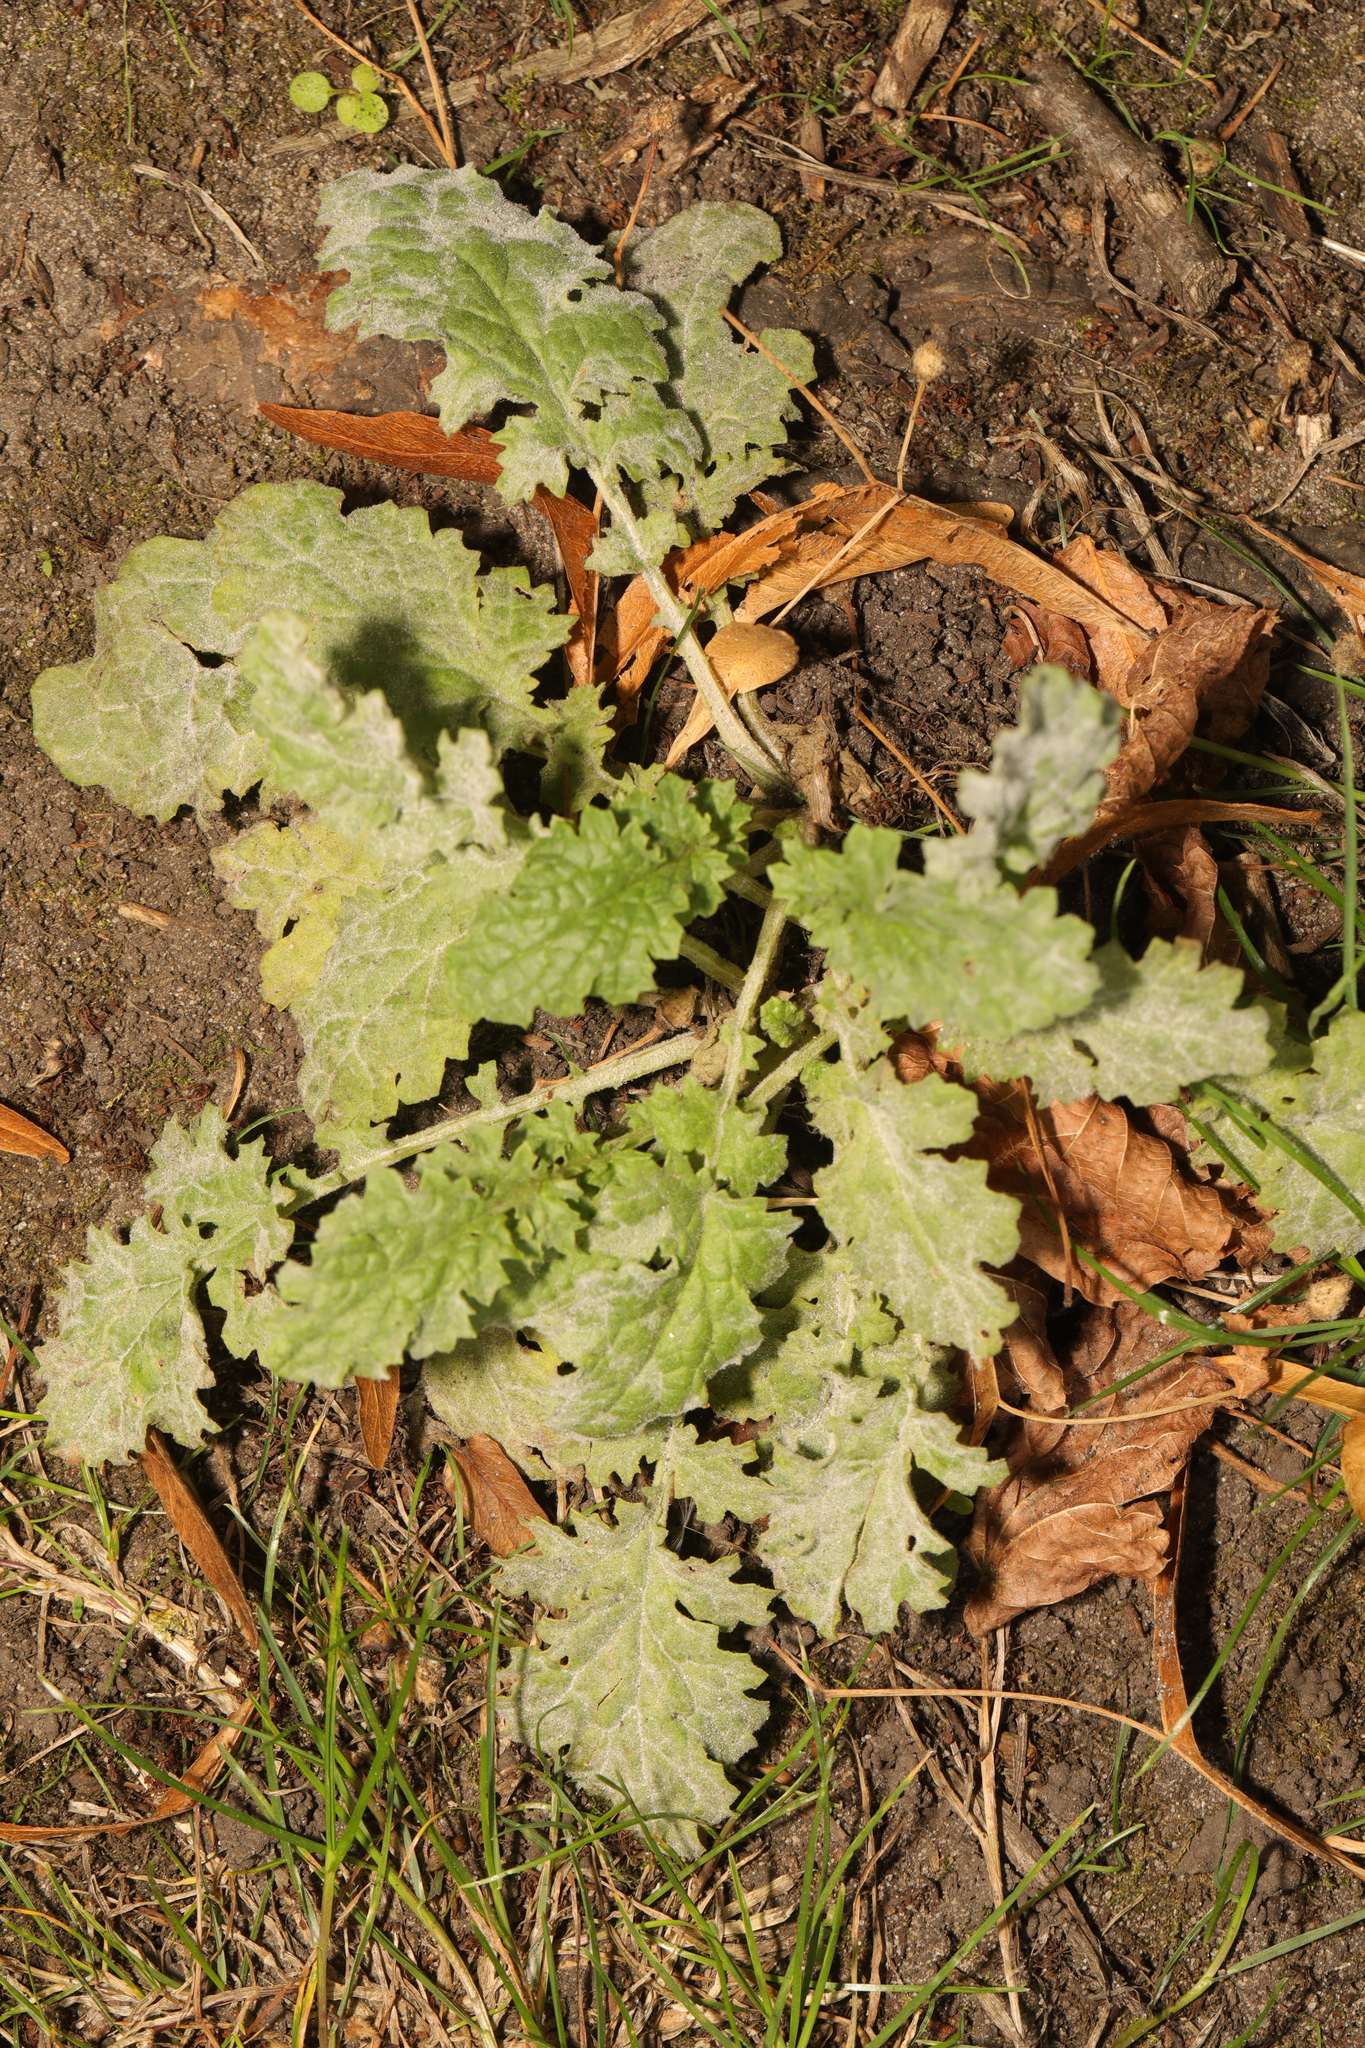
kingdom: Plantae
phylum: Tracheophyta
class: Magnoliopsida
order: Asterales
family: Asteraceae
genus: Jacobaea
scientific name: Jacobaea vulgaris
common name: Stinking willie
